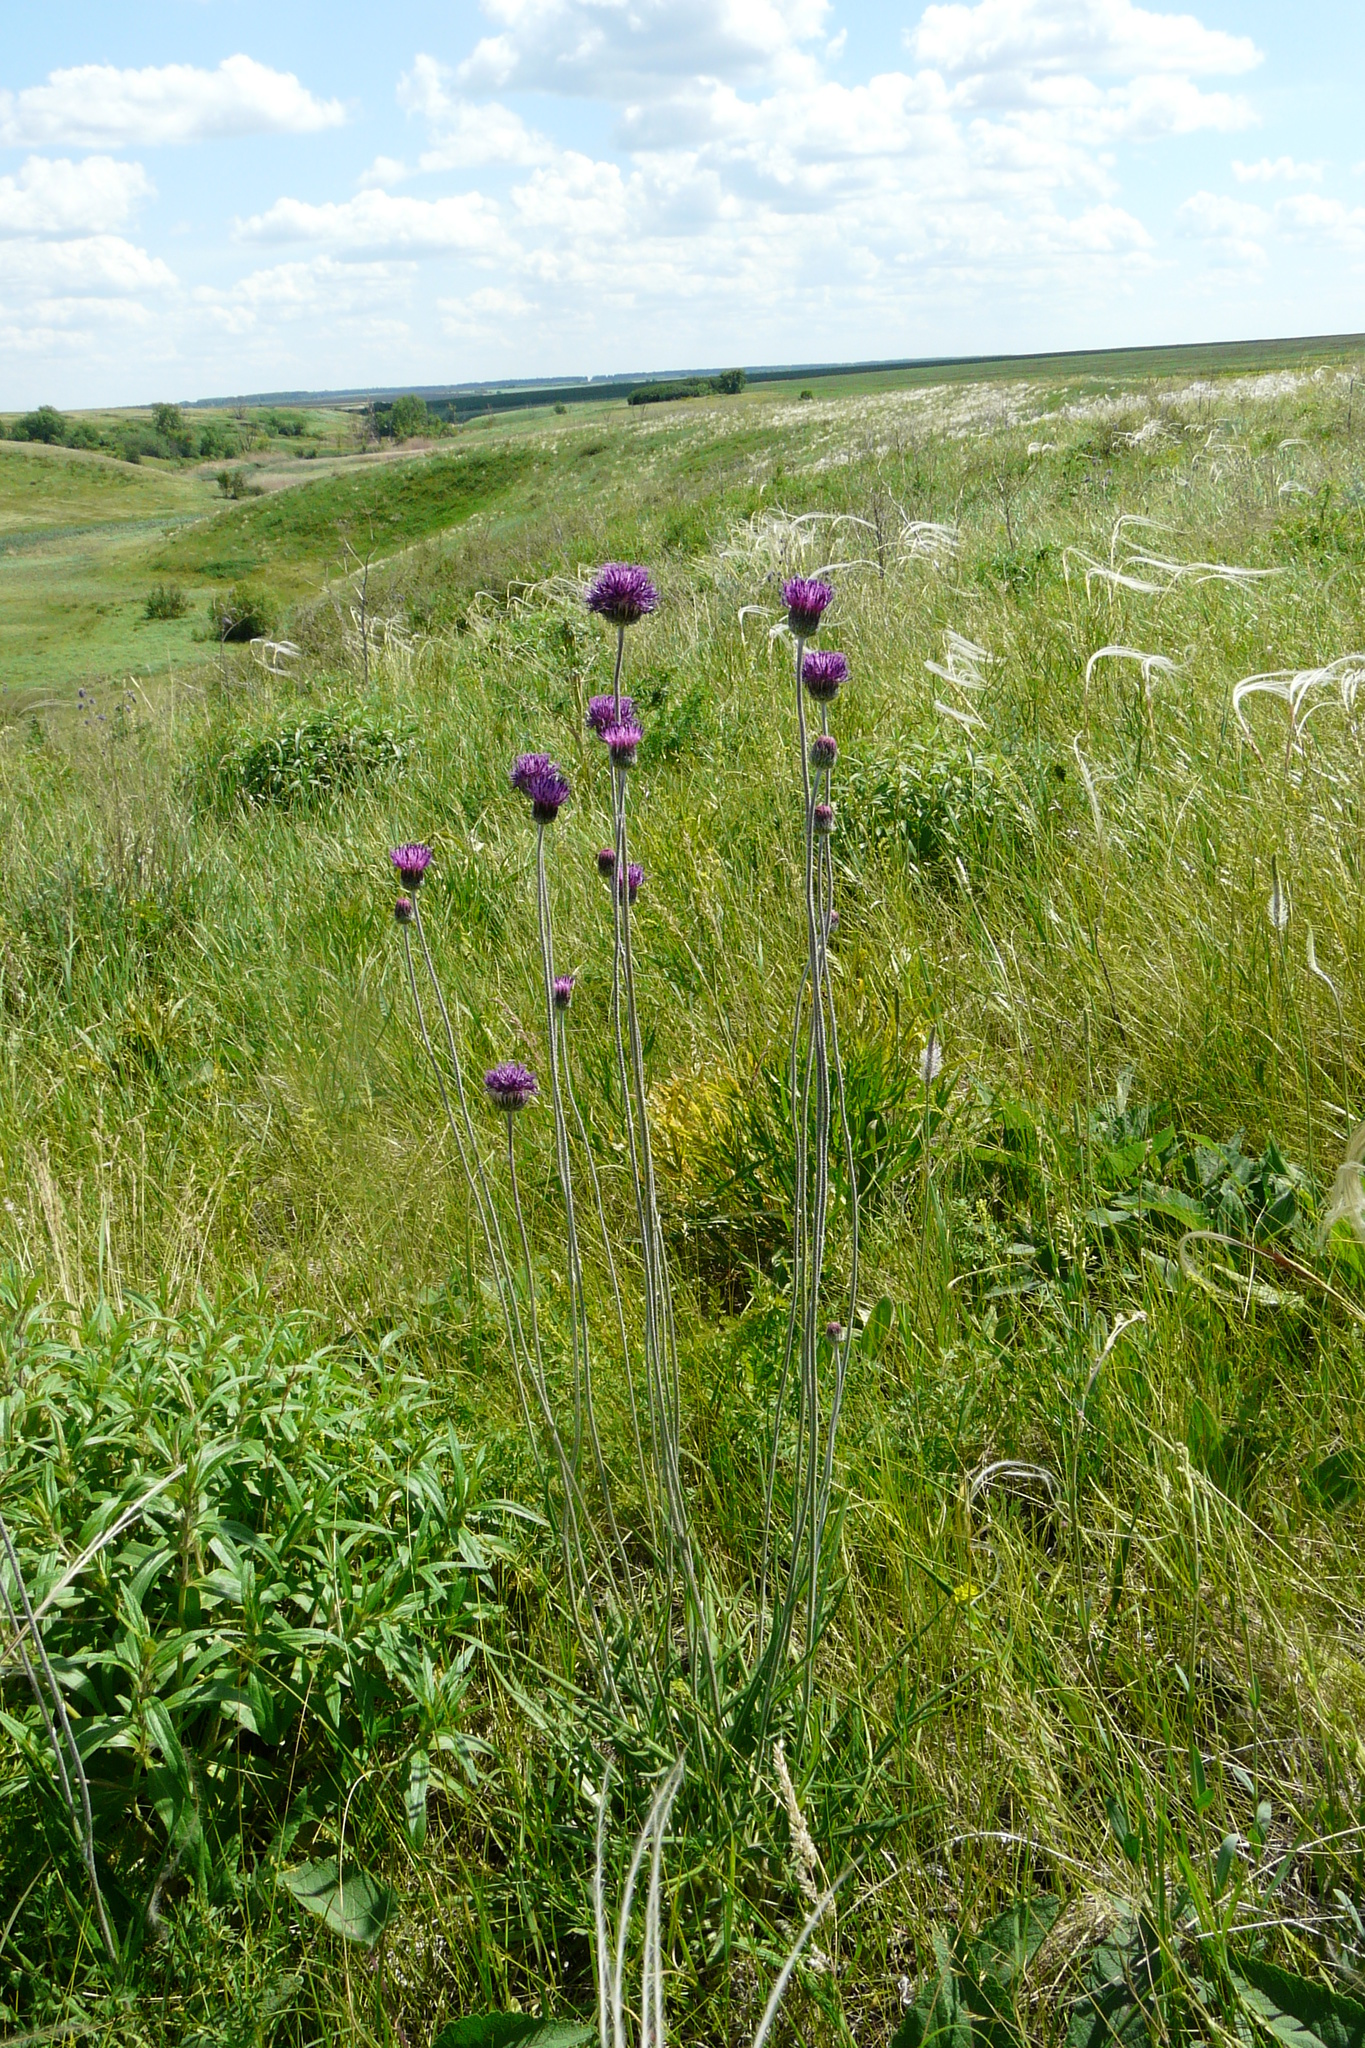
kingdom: Plantae
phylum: Tracheophyta
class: Magnoliopsida
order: Asterales
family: Asteraceae
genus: Jurinea
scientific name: Jurinea arachnoidea
